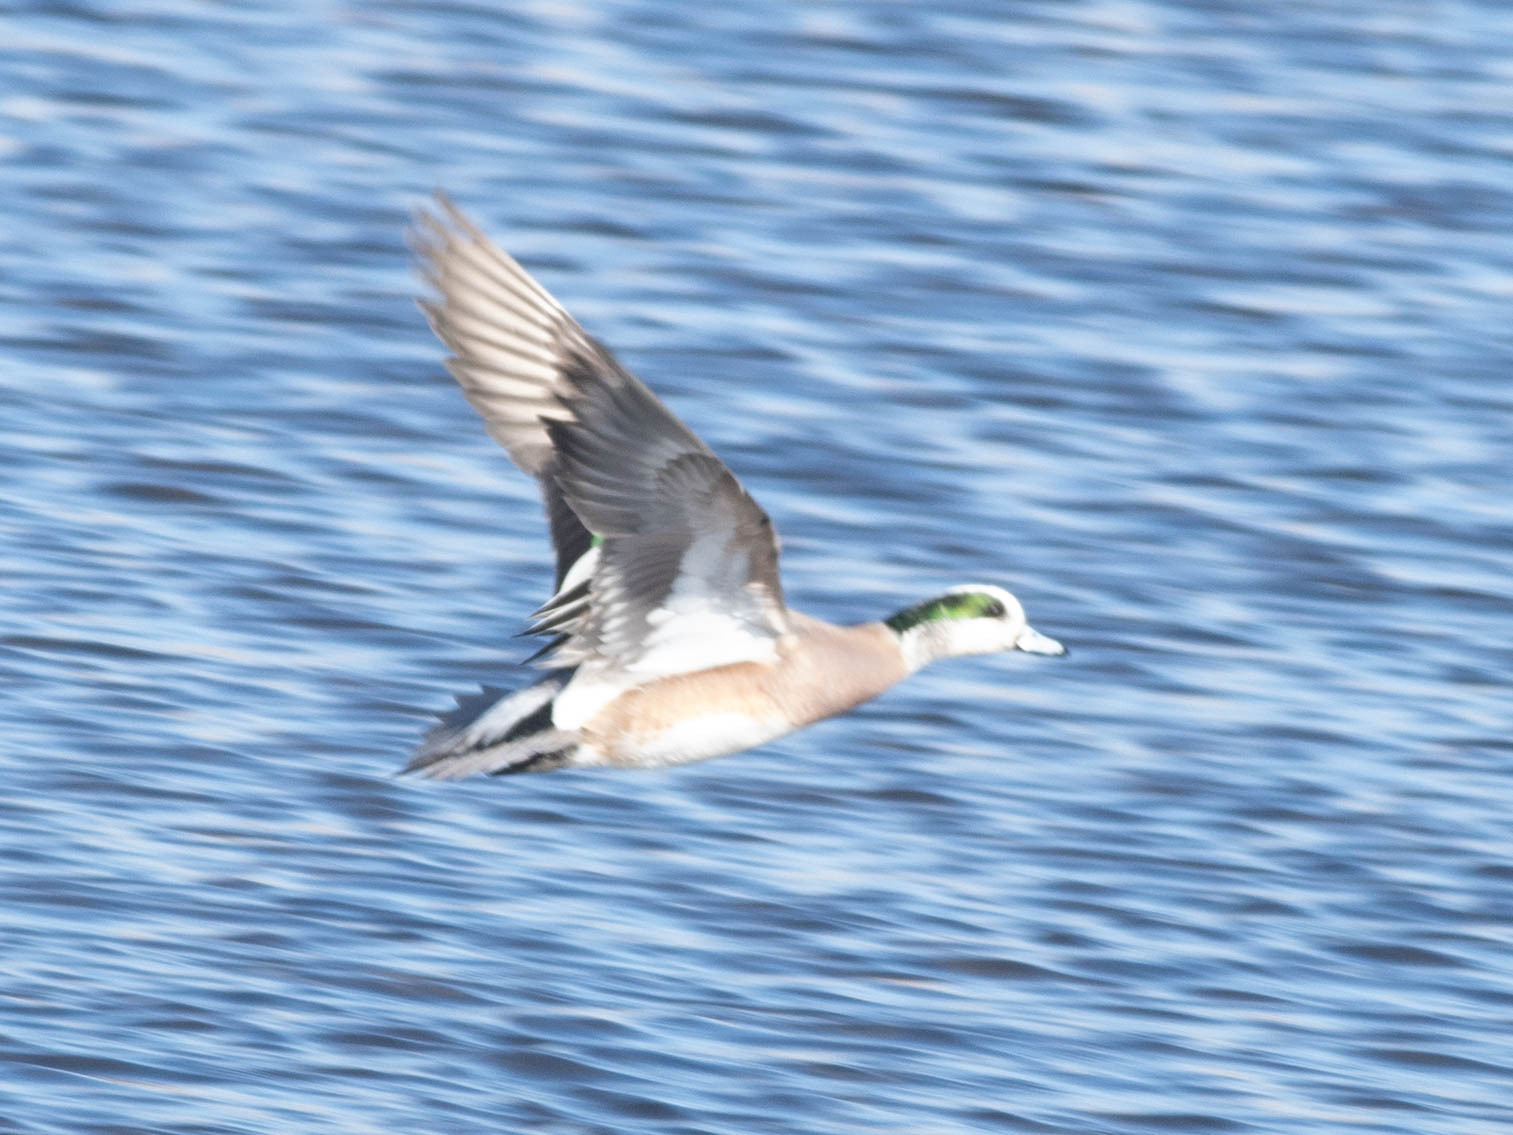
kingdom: Animalia
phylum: Chordata
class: Aves
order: Anseriformes
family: Anatidae
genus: Mareca
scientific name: Mareca americana
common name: American wigeon
